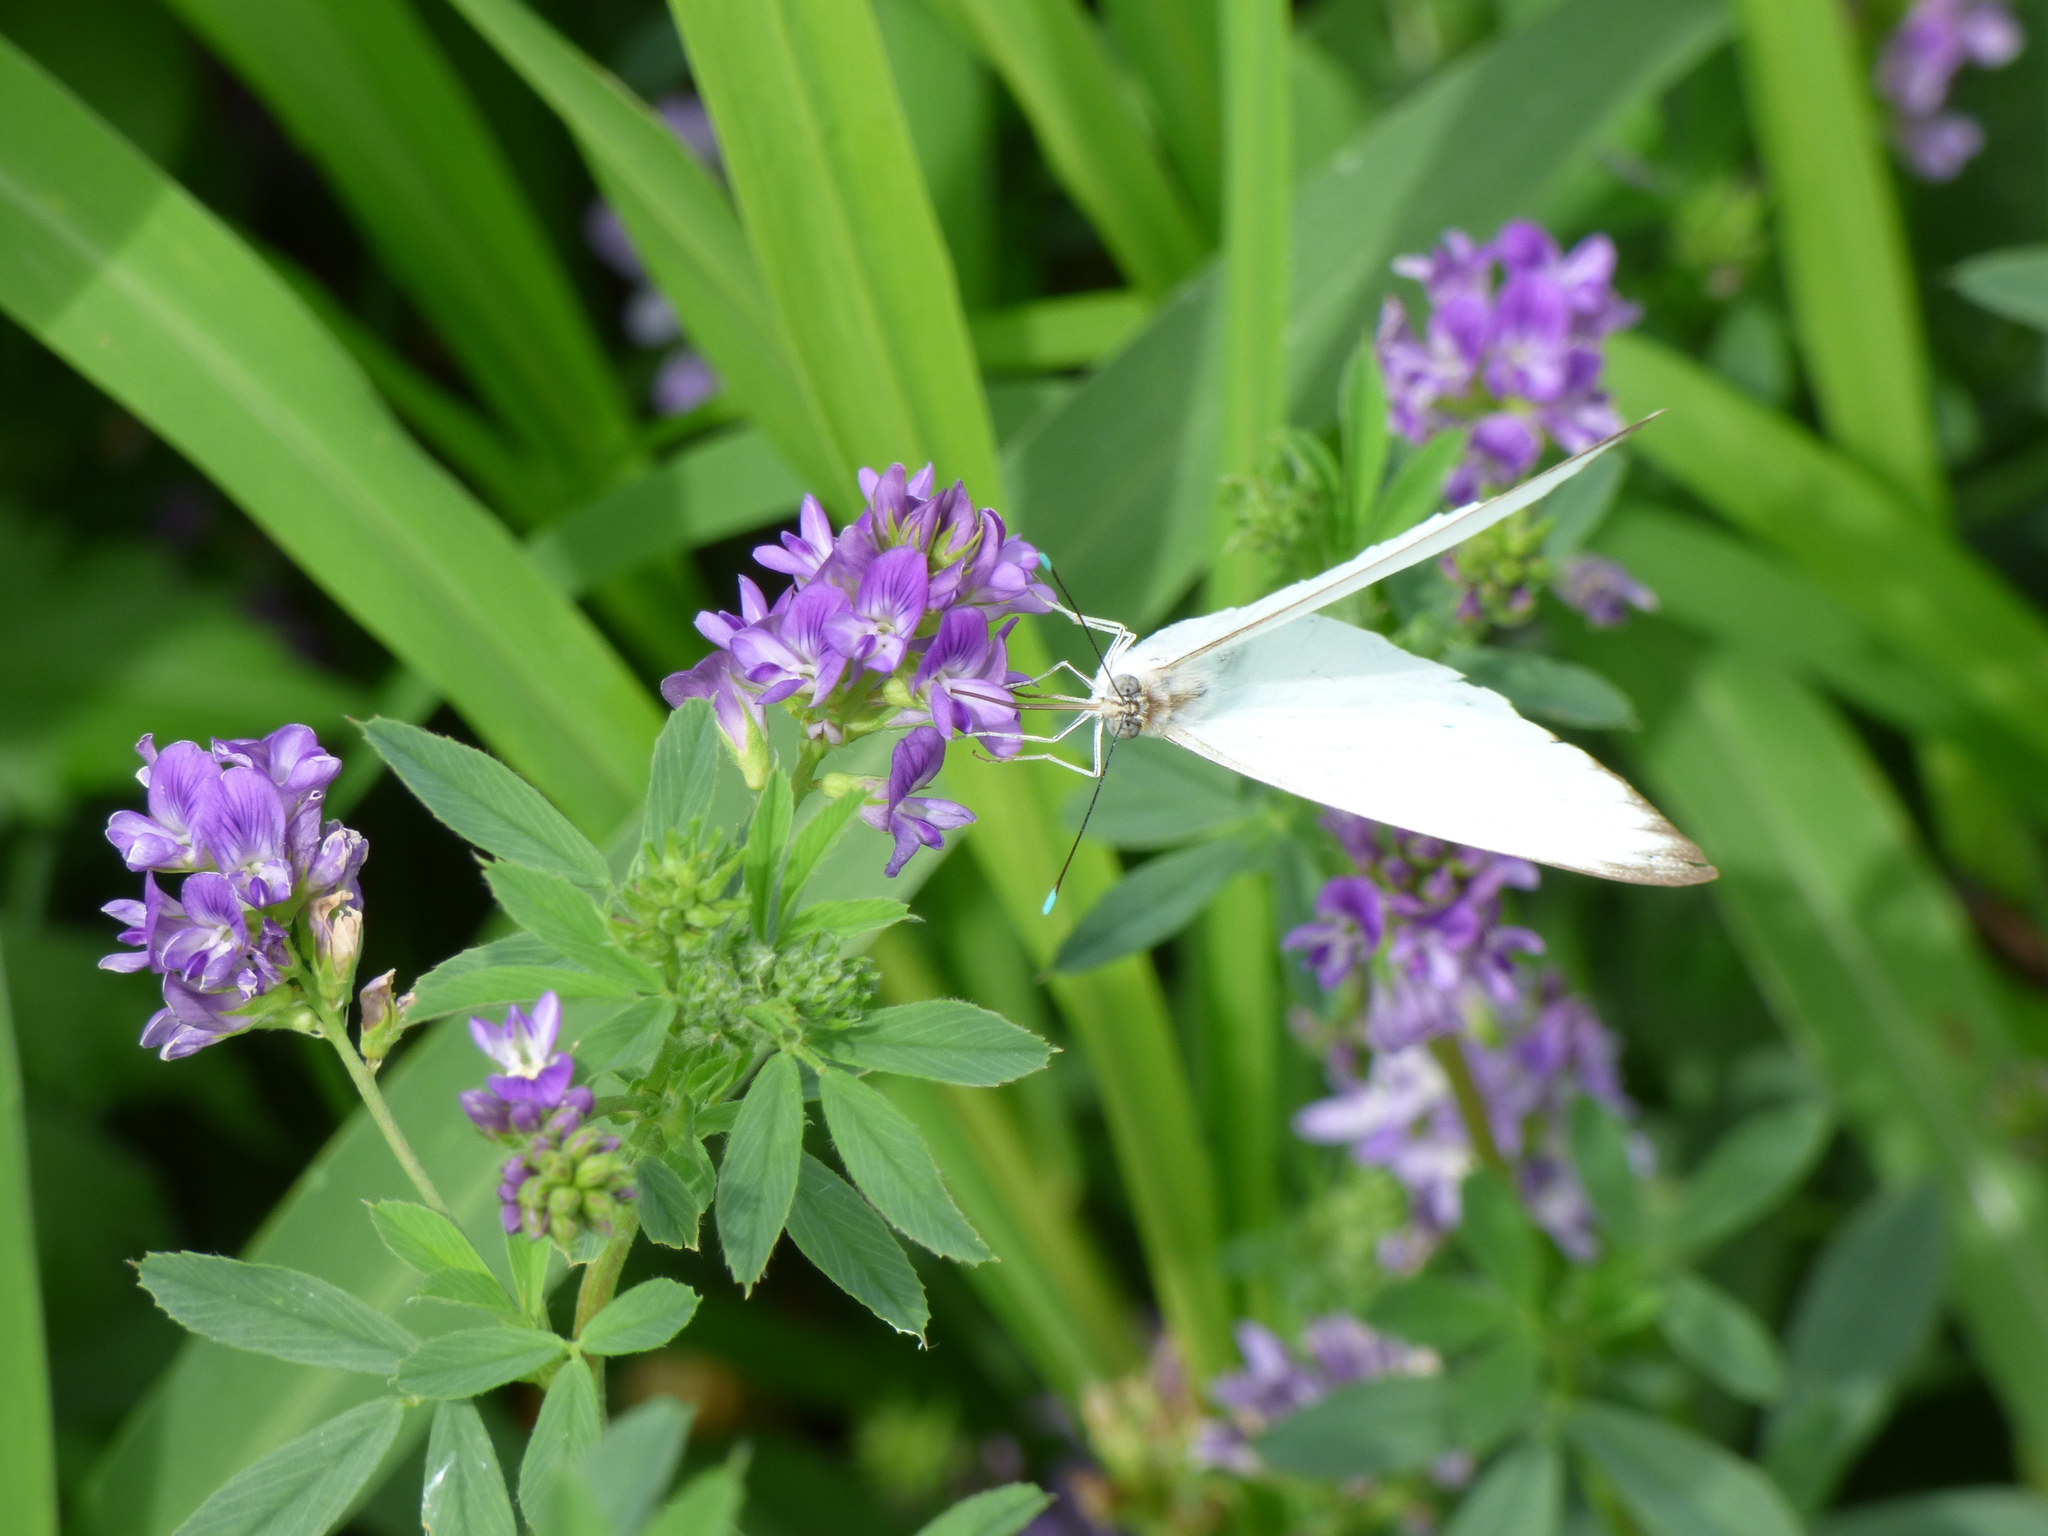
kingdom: Animalia
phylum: Arthropoda
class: Insecta
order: Lepidoptera
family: Pieridae
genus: Ascia
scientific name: Ascia monuste
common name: Great southern white
